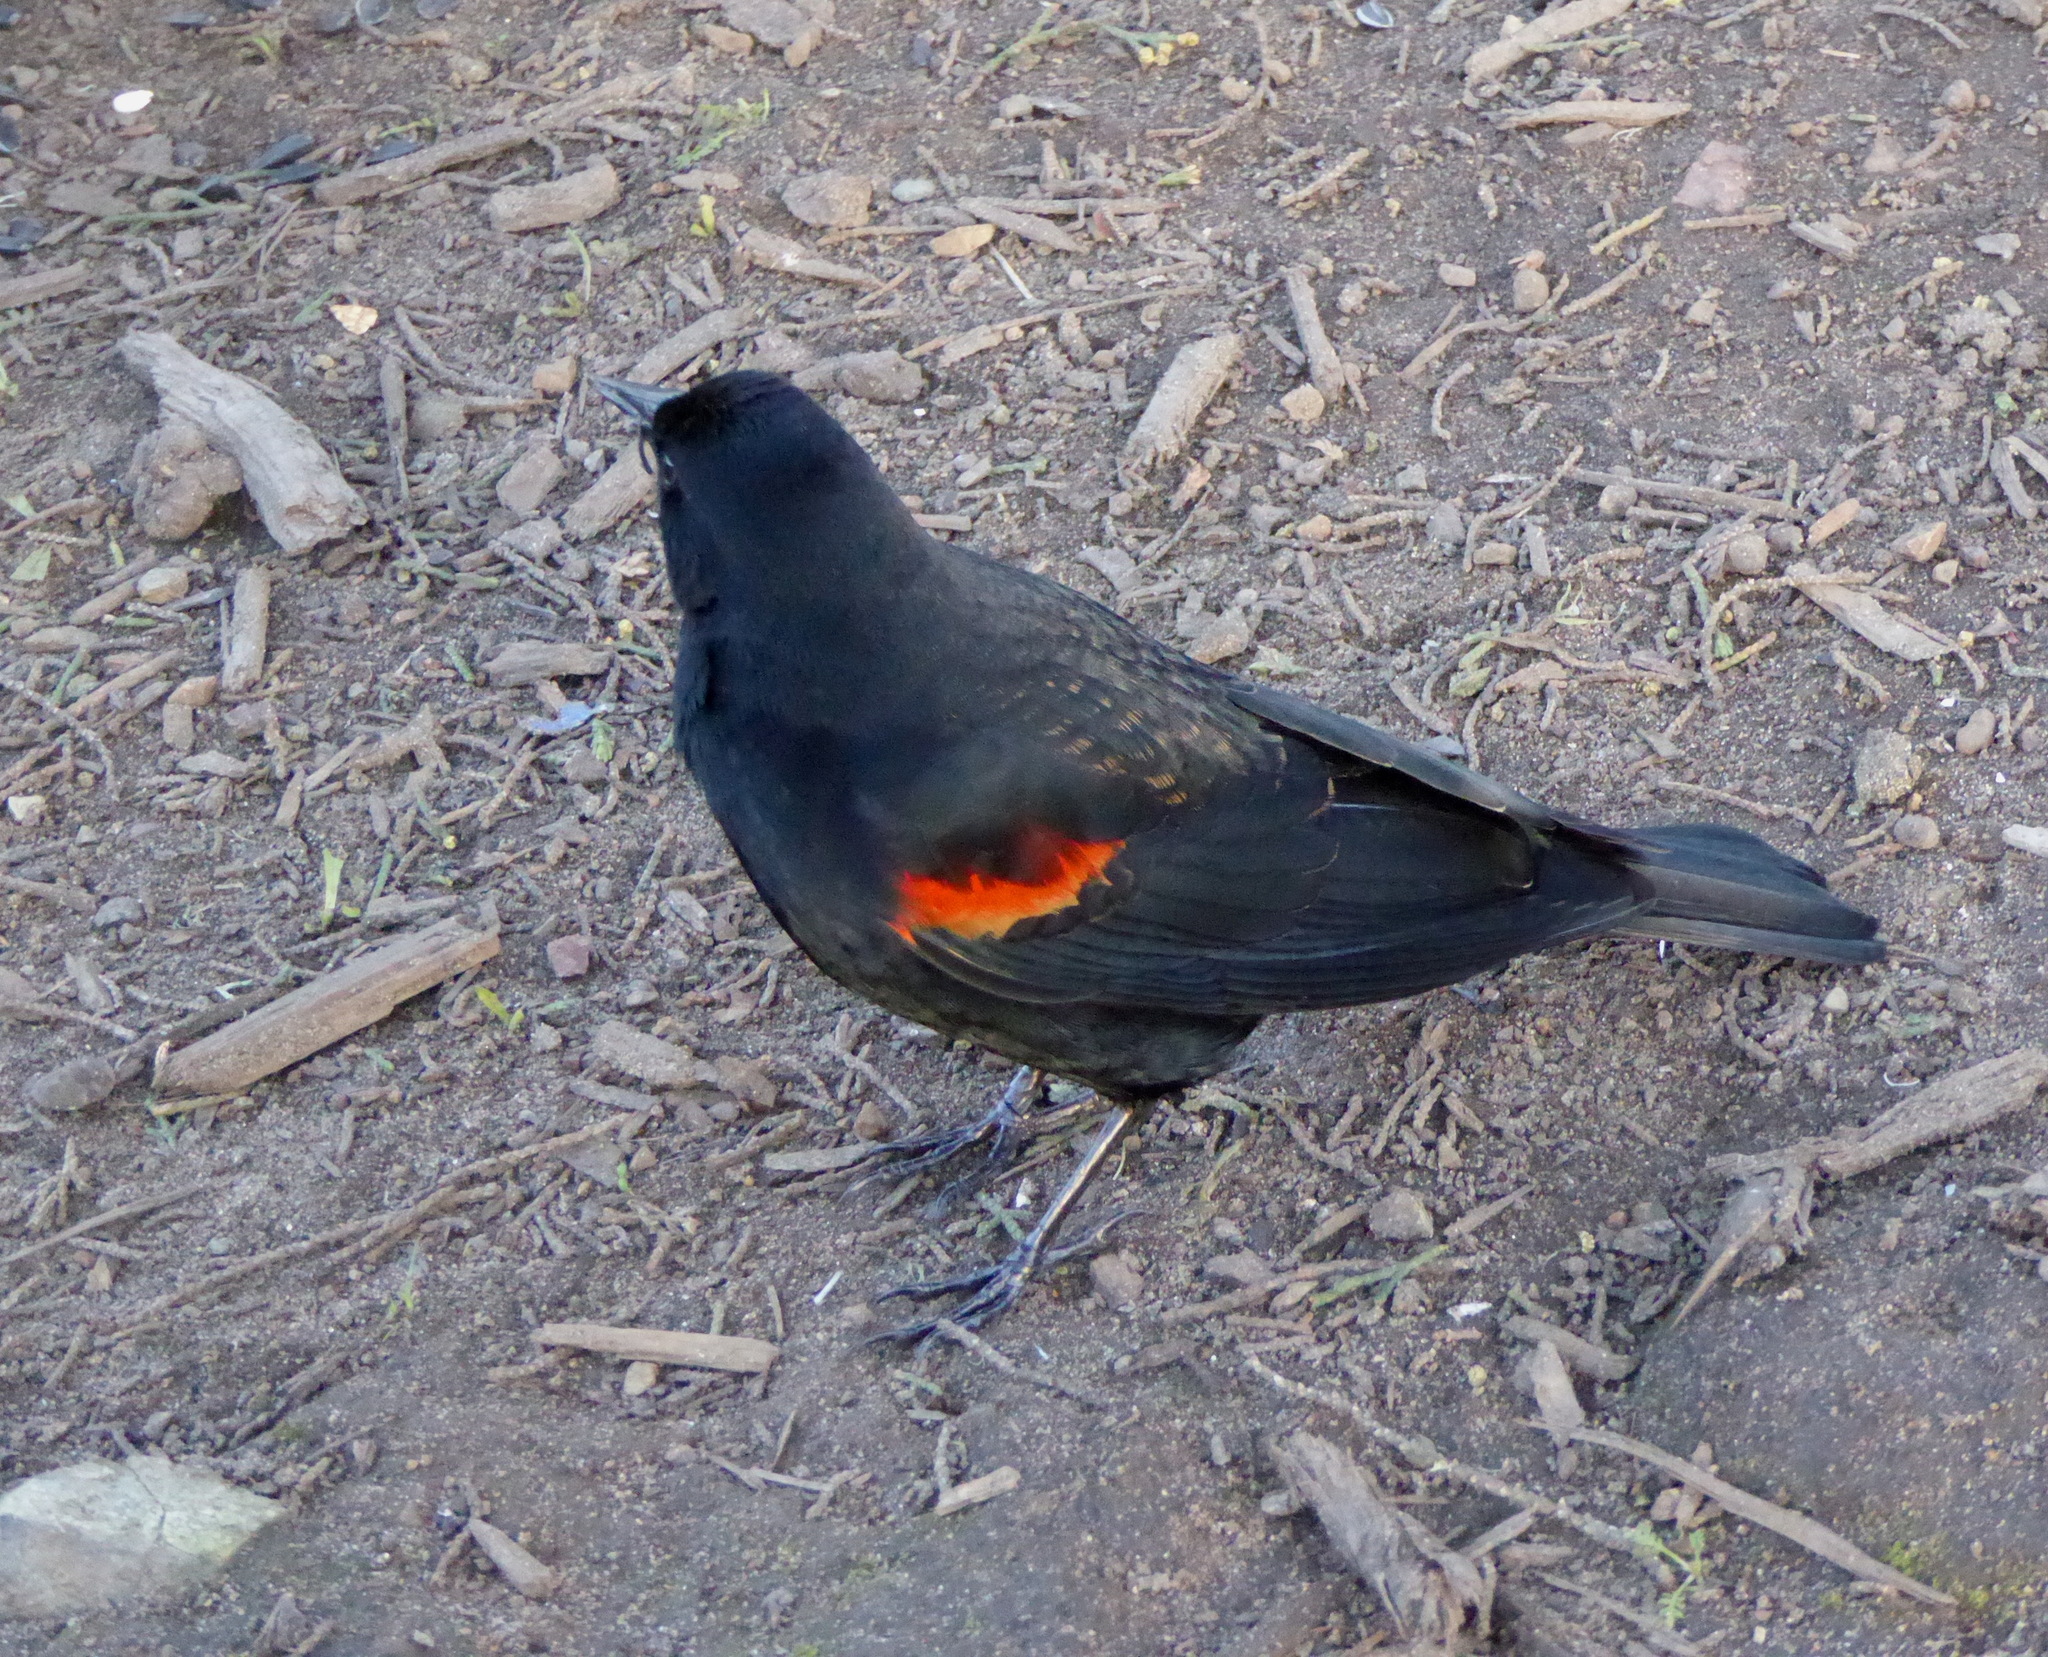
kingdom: Animalia
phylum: Chordata
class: Aves
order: Passeriformes
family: Icteridae
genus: Agelaius
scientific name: Agelaius phoeniceus
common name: Red-winged blackbird
